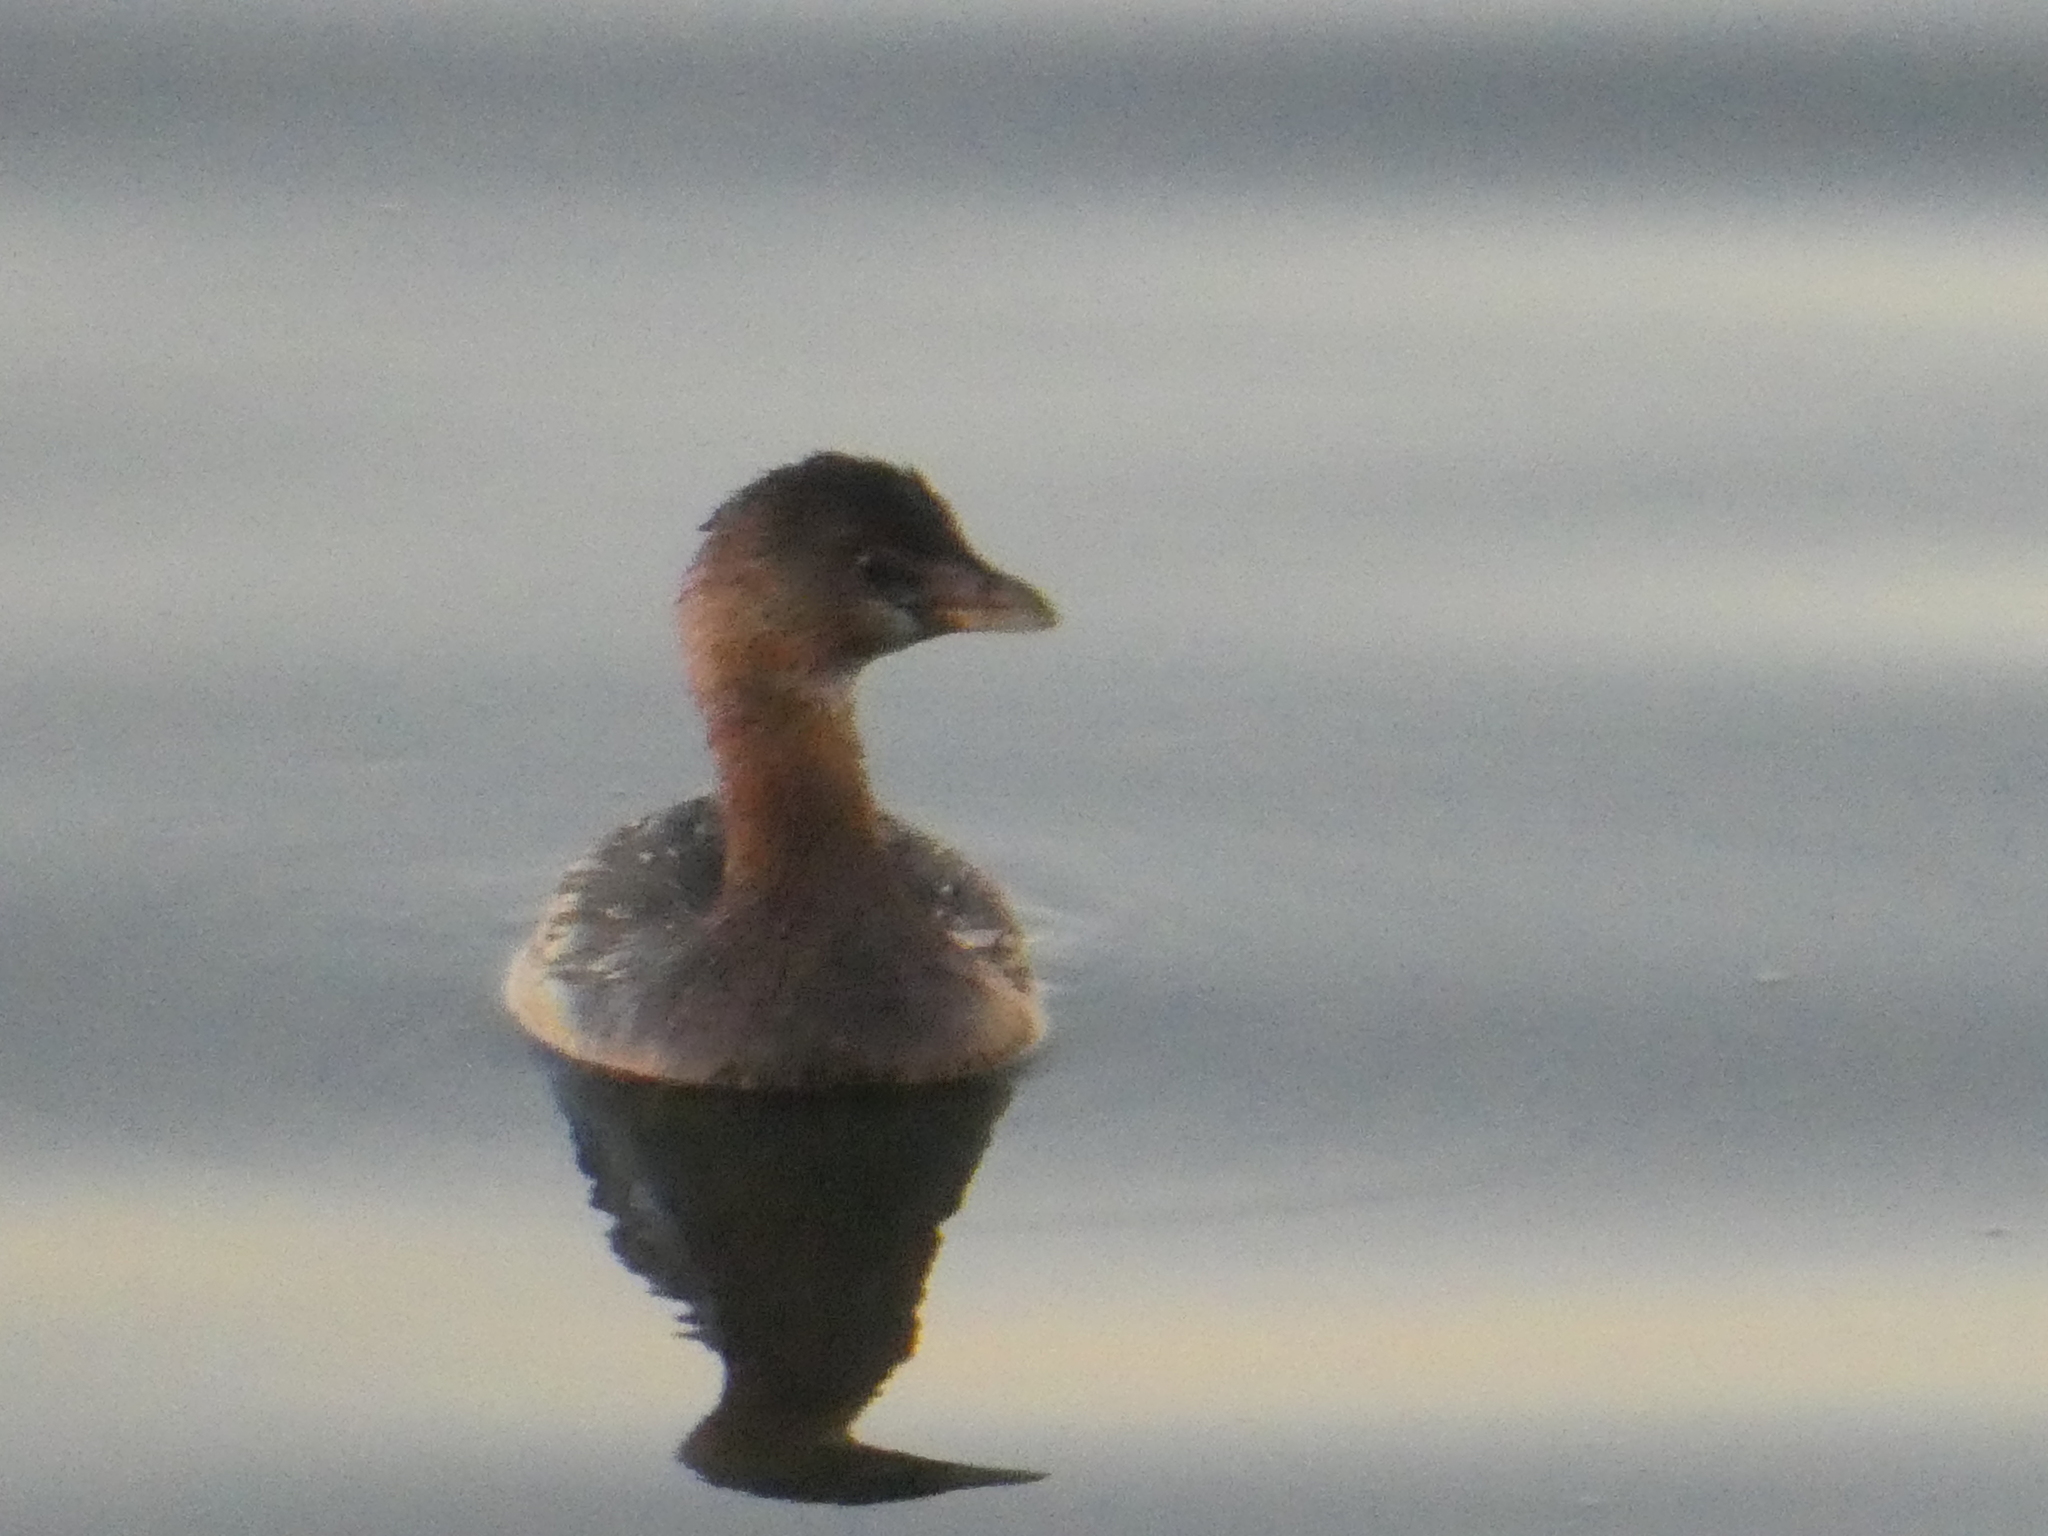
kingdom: Animalia
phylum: Chordata
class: Aves
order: Podicipediformes
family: Podicipedidae
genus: Podilymbus
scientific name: Podilymbus podiceps
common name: Pied-billed grebe
